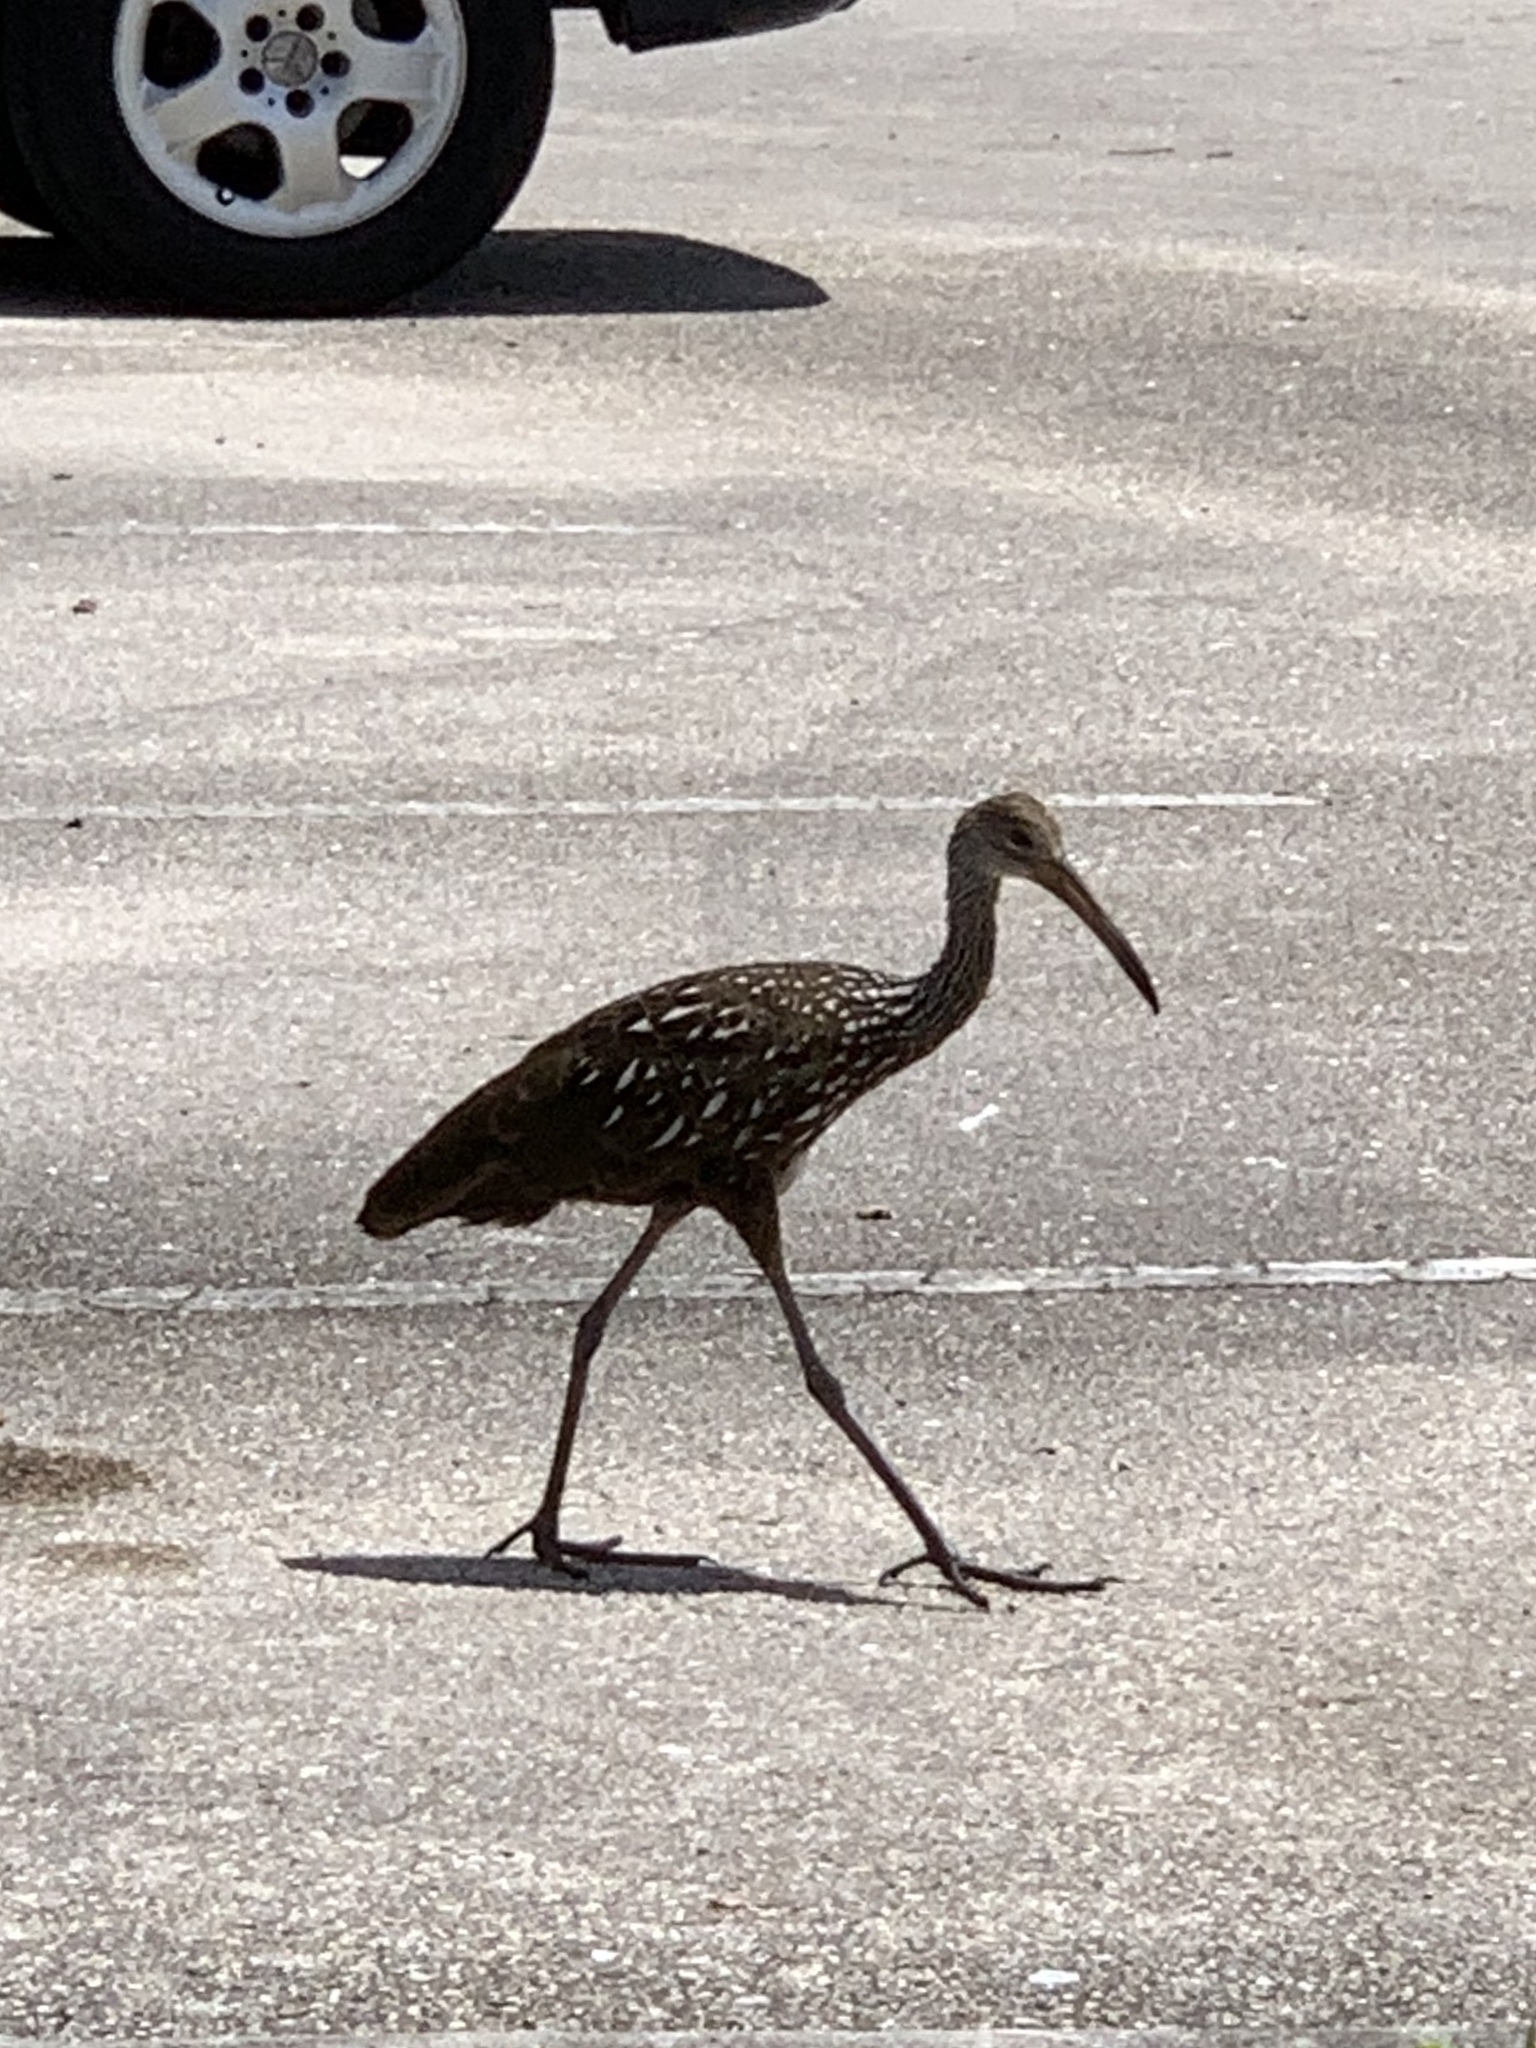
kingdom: Animalia
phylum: Chordata
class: Aves
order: Gruiformes
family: Aramidae
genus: Aramus
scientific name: Aramus guarauna
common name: Limpkin
